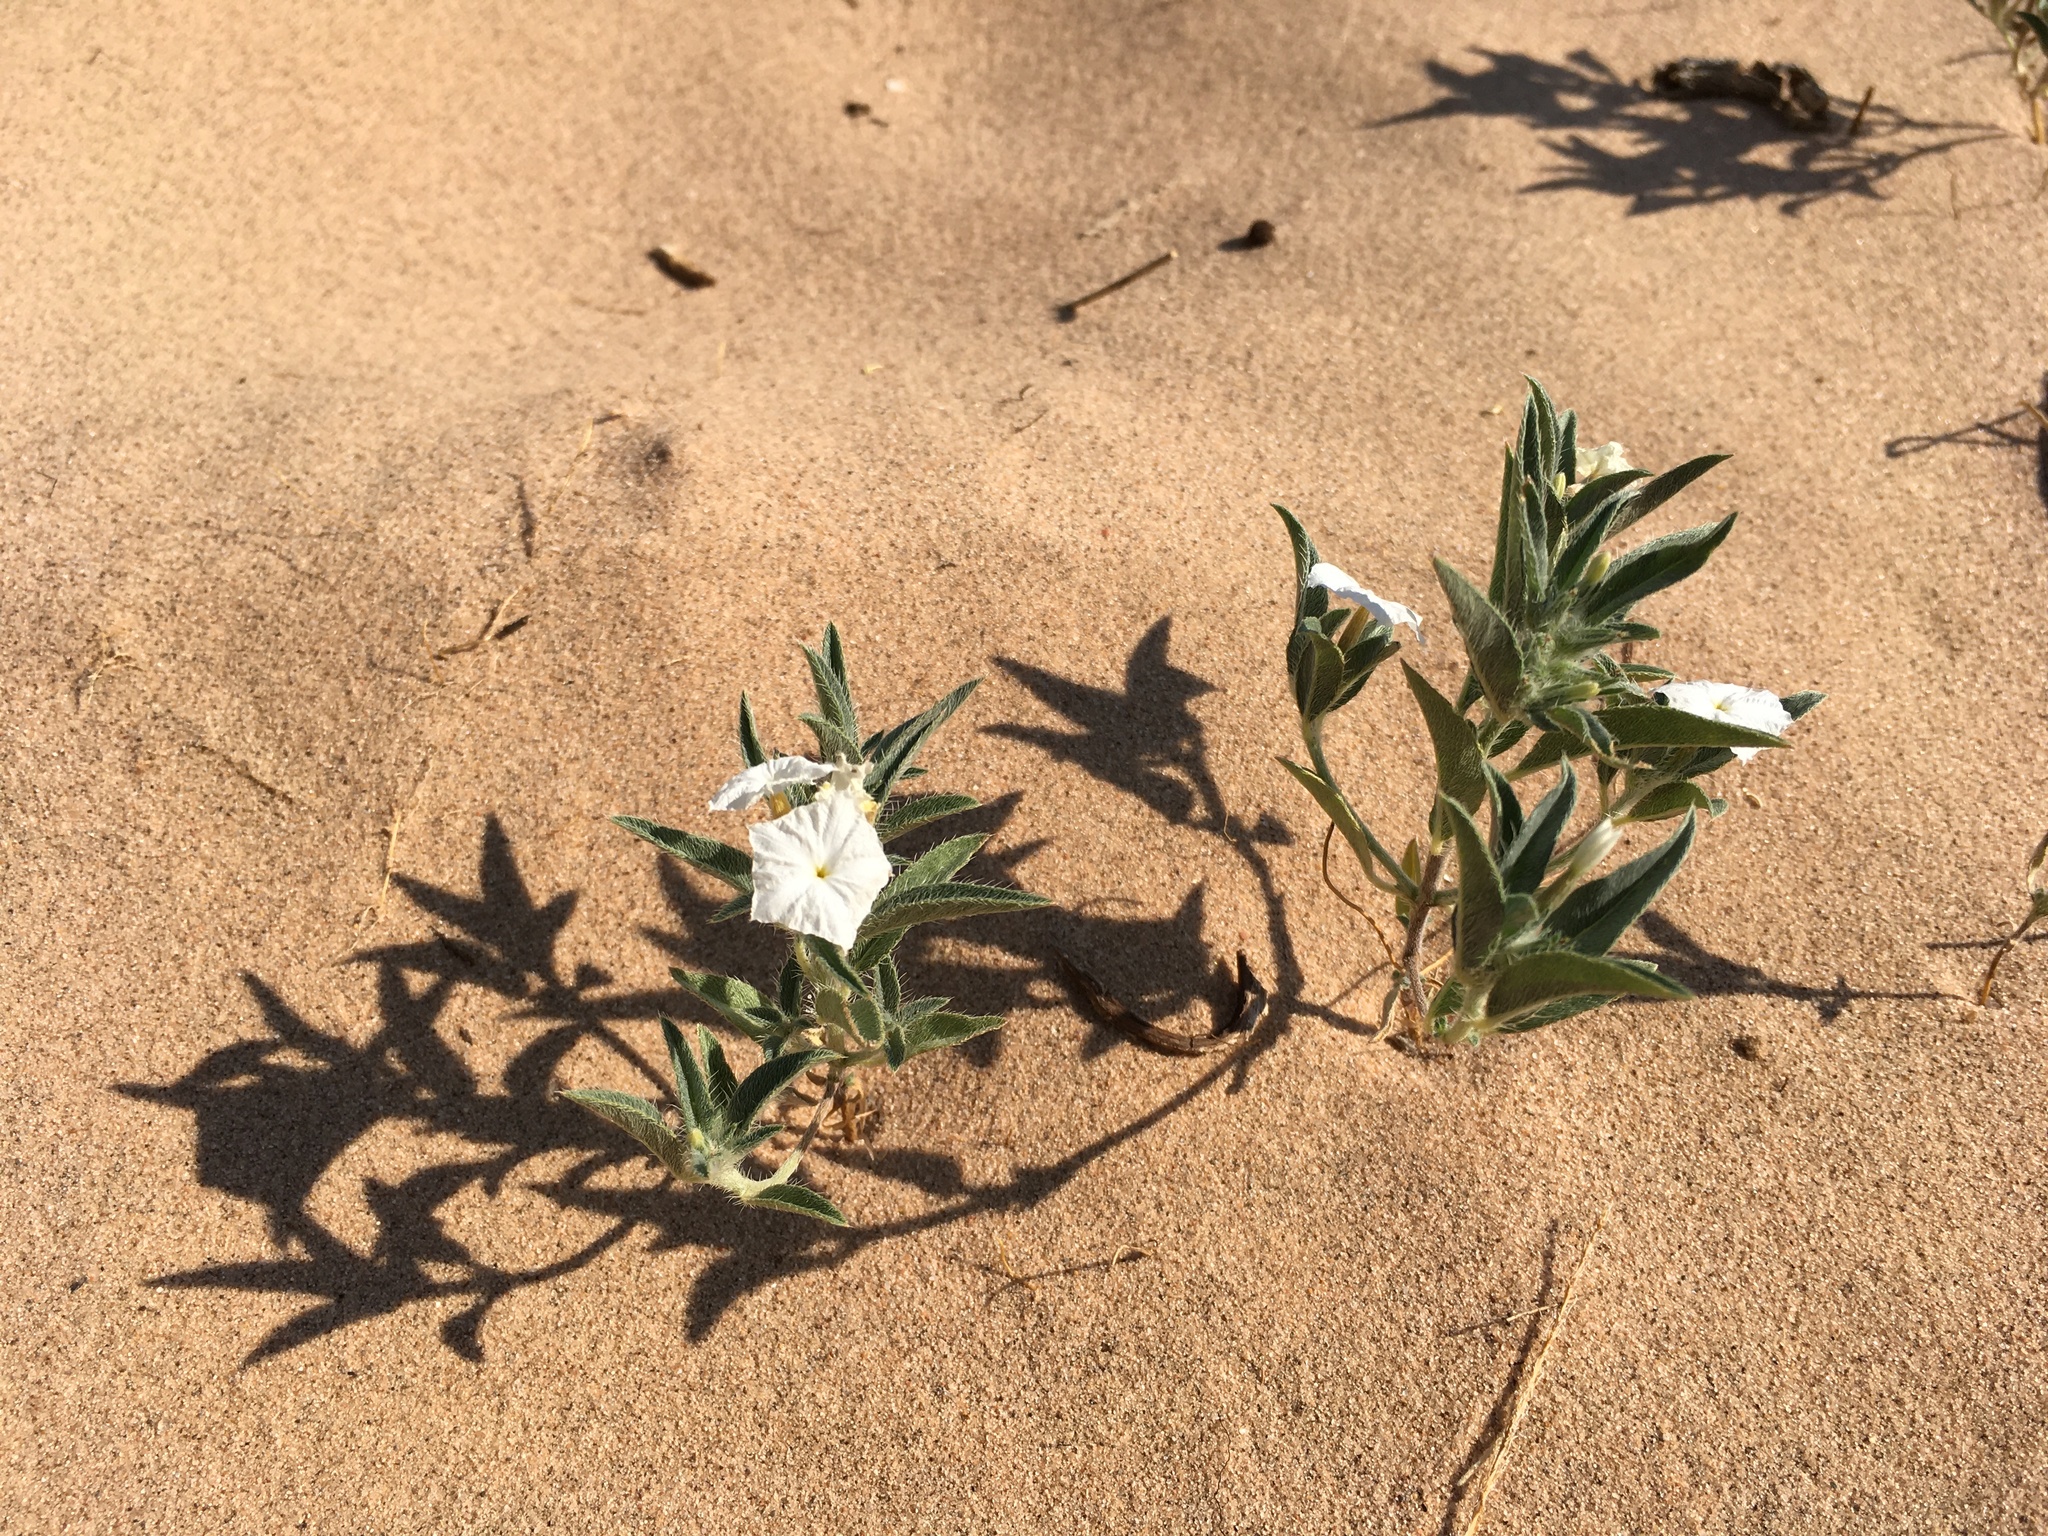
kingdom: Plantae
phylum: Tracheophyta
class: Magnoliopsida
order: Boraginales
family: Heliotropiaceae
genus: Euploca
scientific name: Euploca convolvulacea
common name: Bindweed heliotrope
